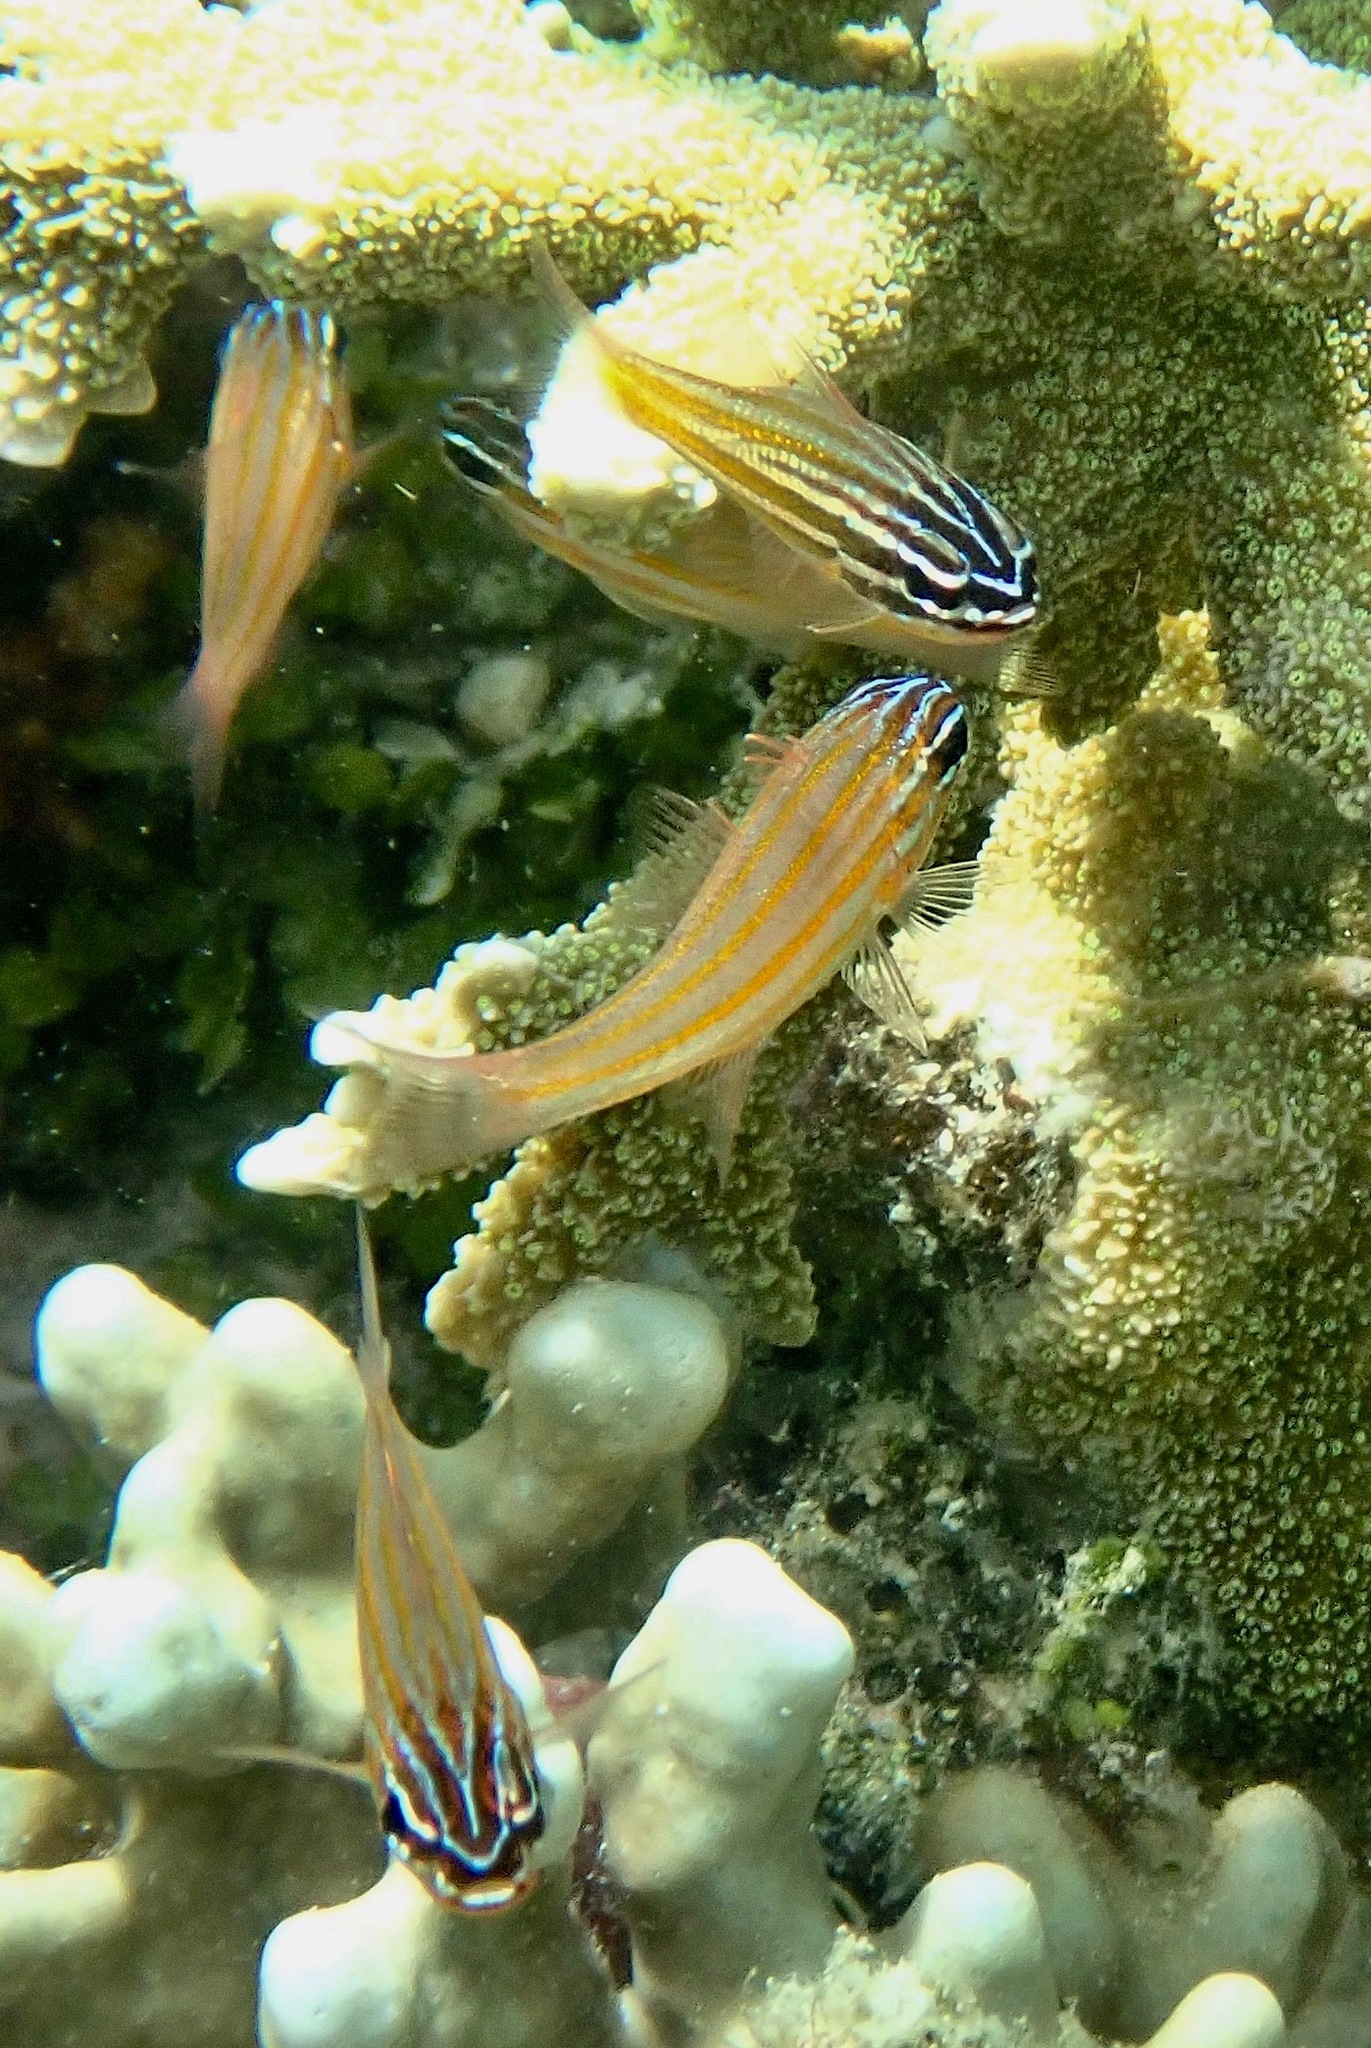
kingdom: Animalia
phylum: Chordata
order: Perciformes
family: Apogonidae
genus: Ostorhinchus
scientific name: Ostorhinchus cyanosoma
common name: Yellow-striped cardinalfish
